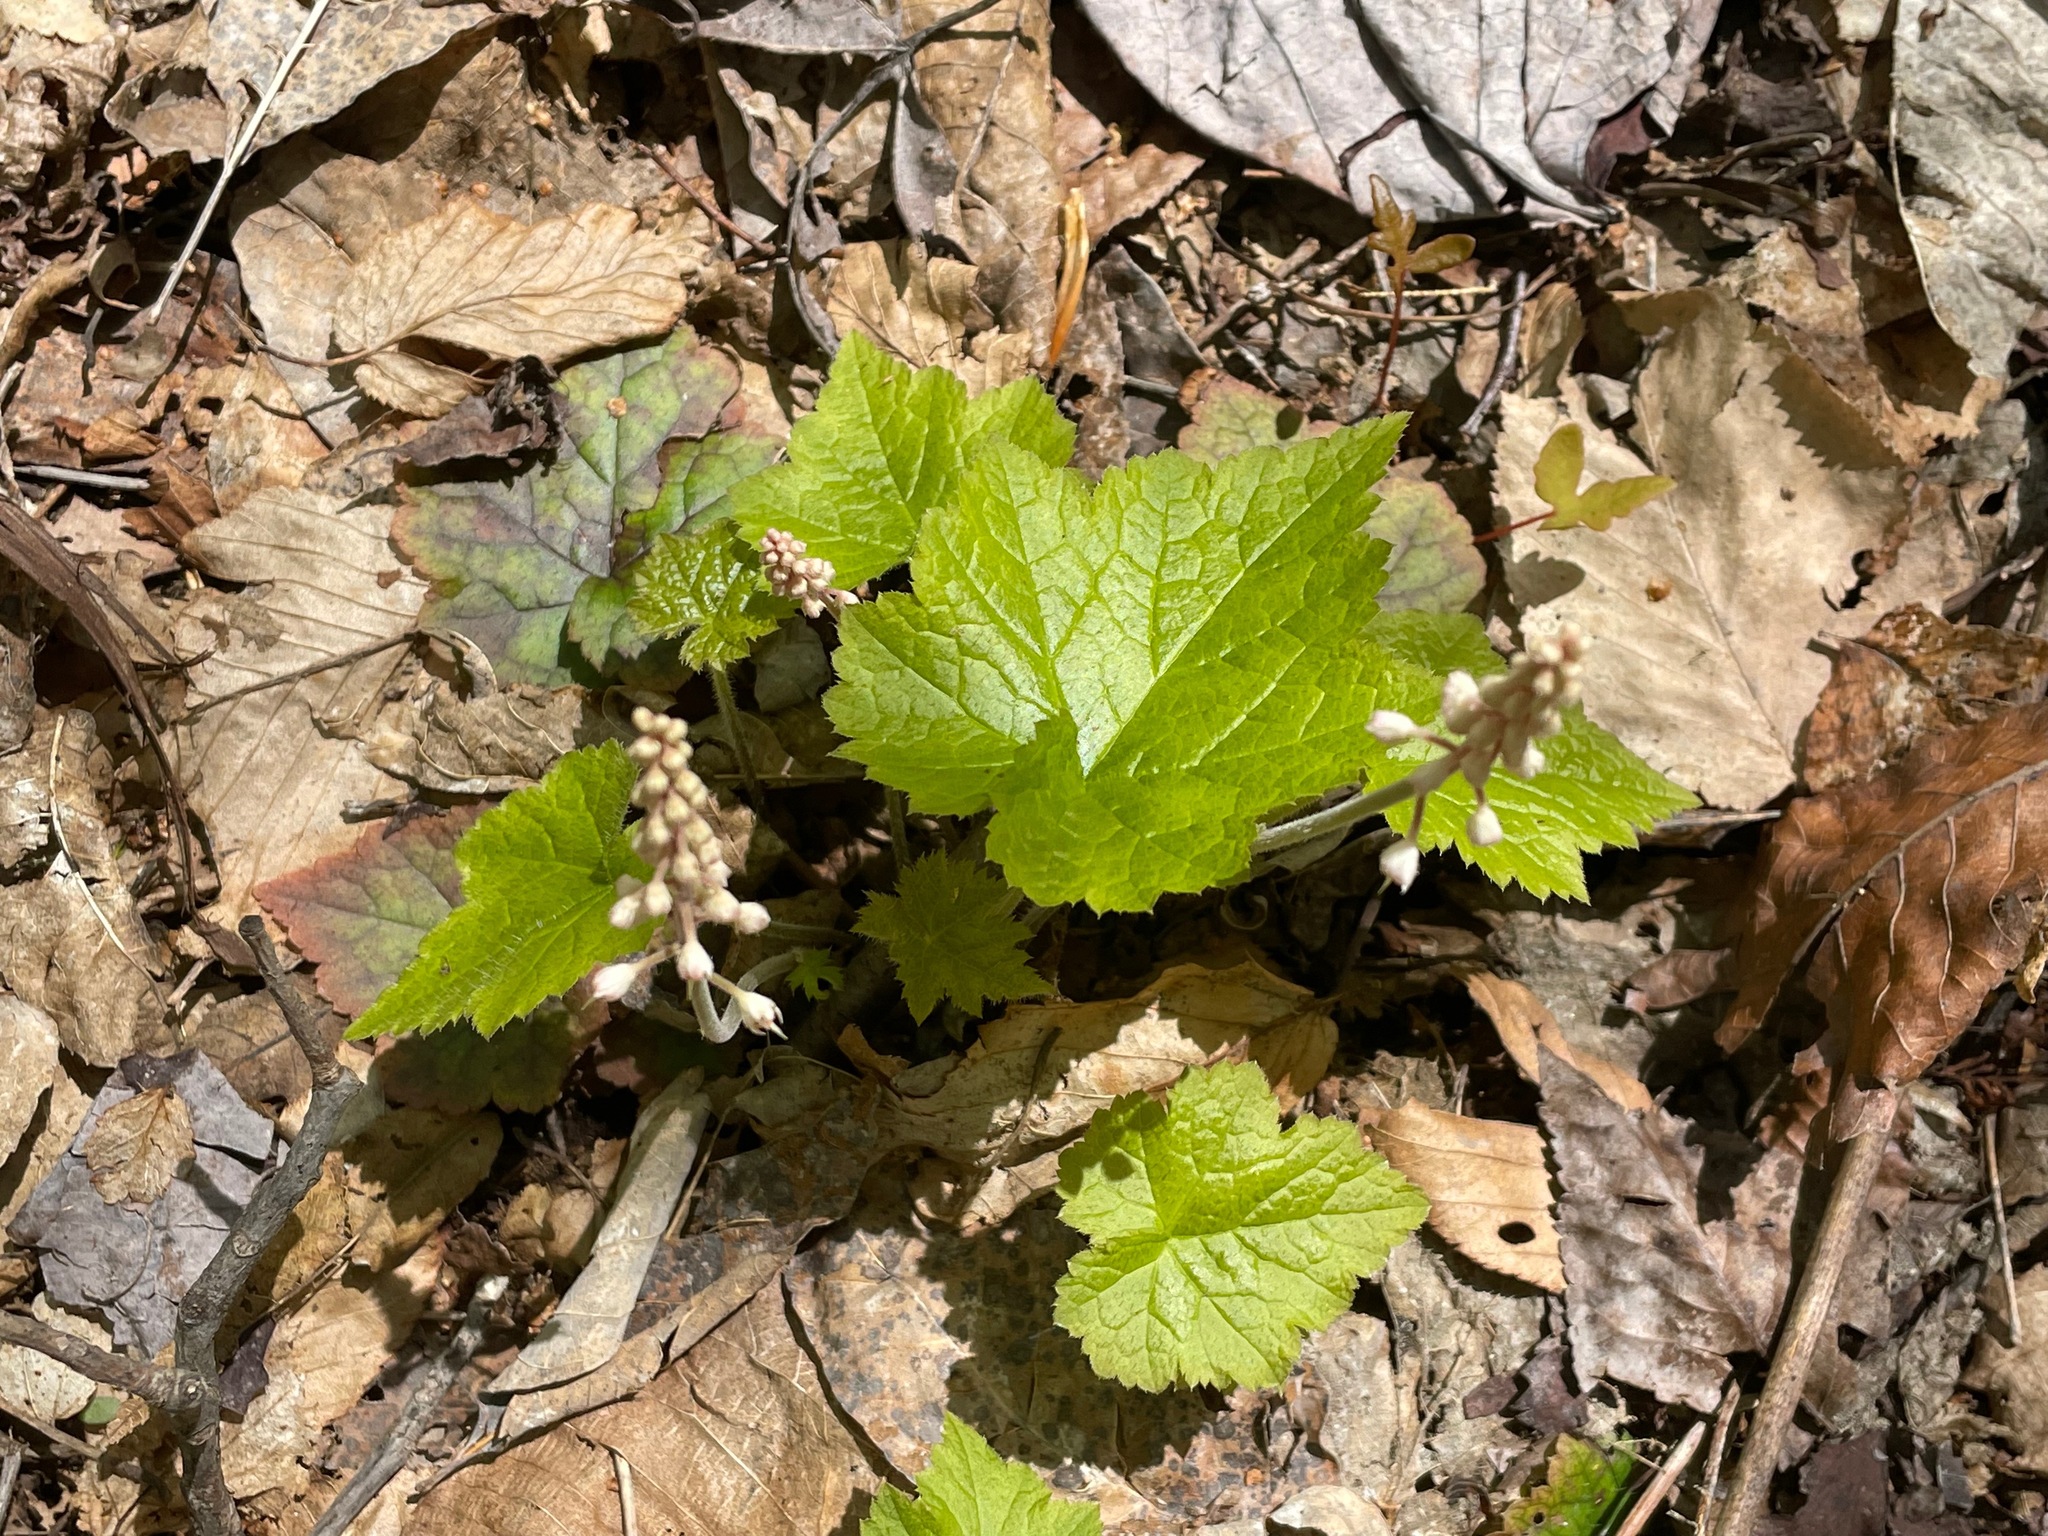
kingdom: Plantae
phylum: Tracheophyta
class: Magnoliopsida
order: Saxifragales
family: Saxifragaceae
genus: Tiarella
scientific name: Tiarella stolonifera
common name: Stoloniferous foamflower
